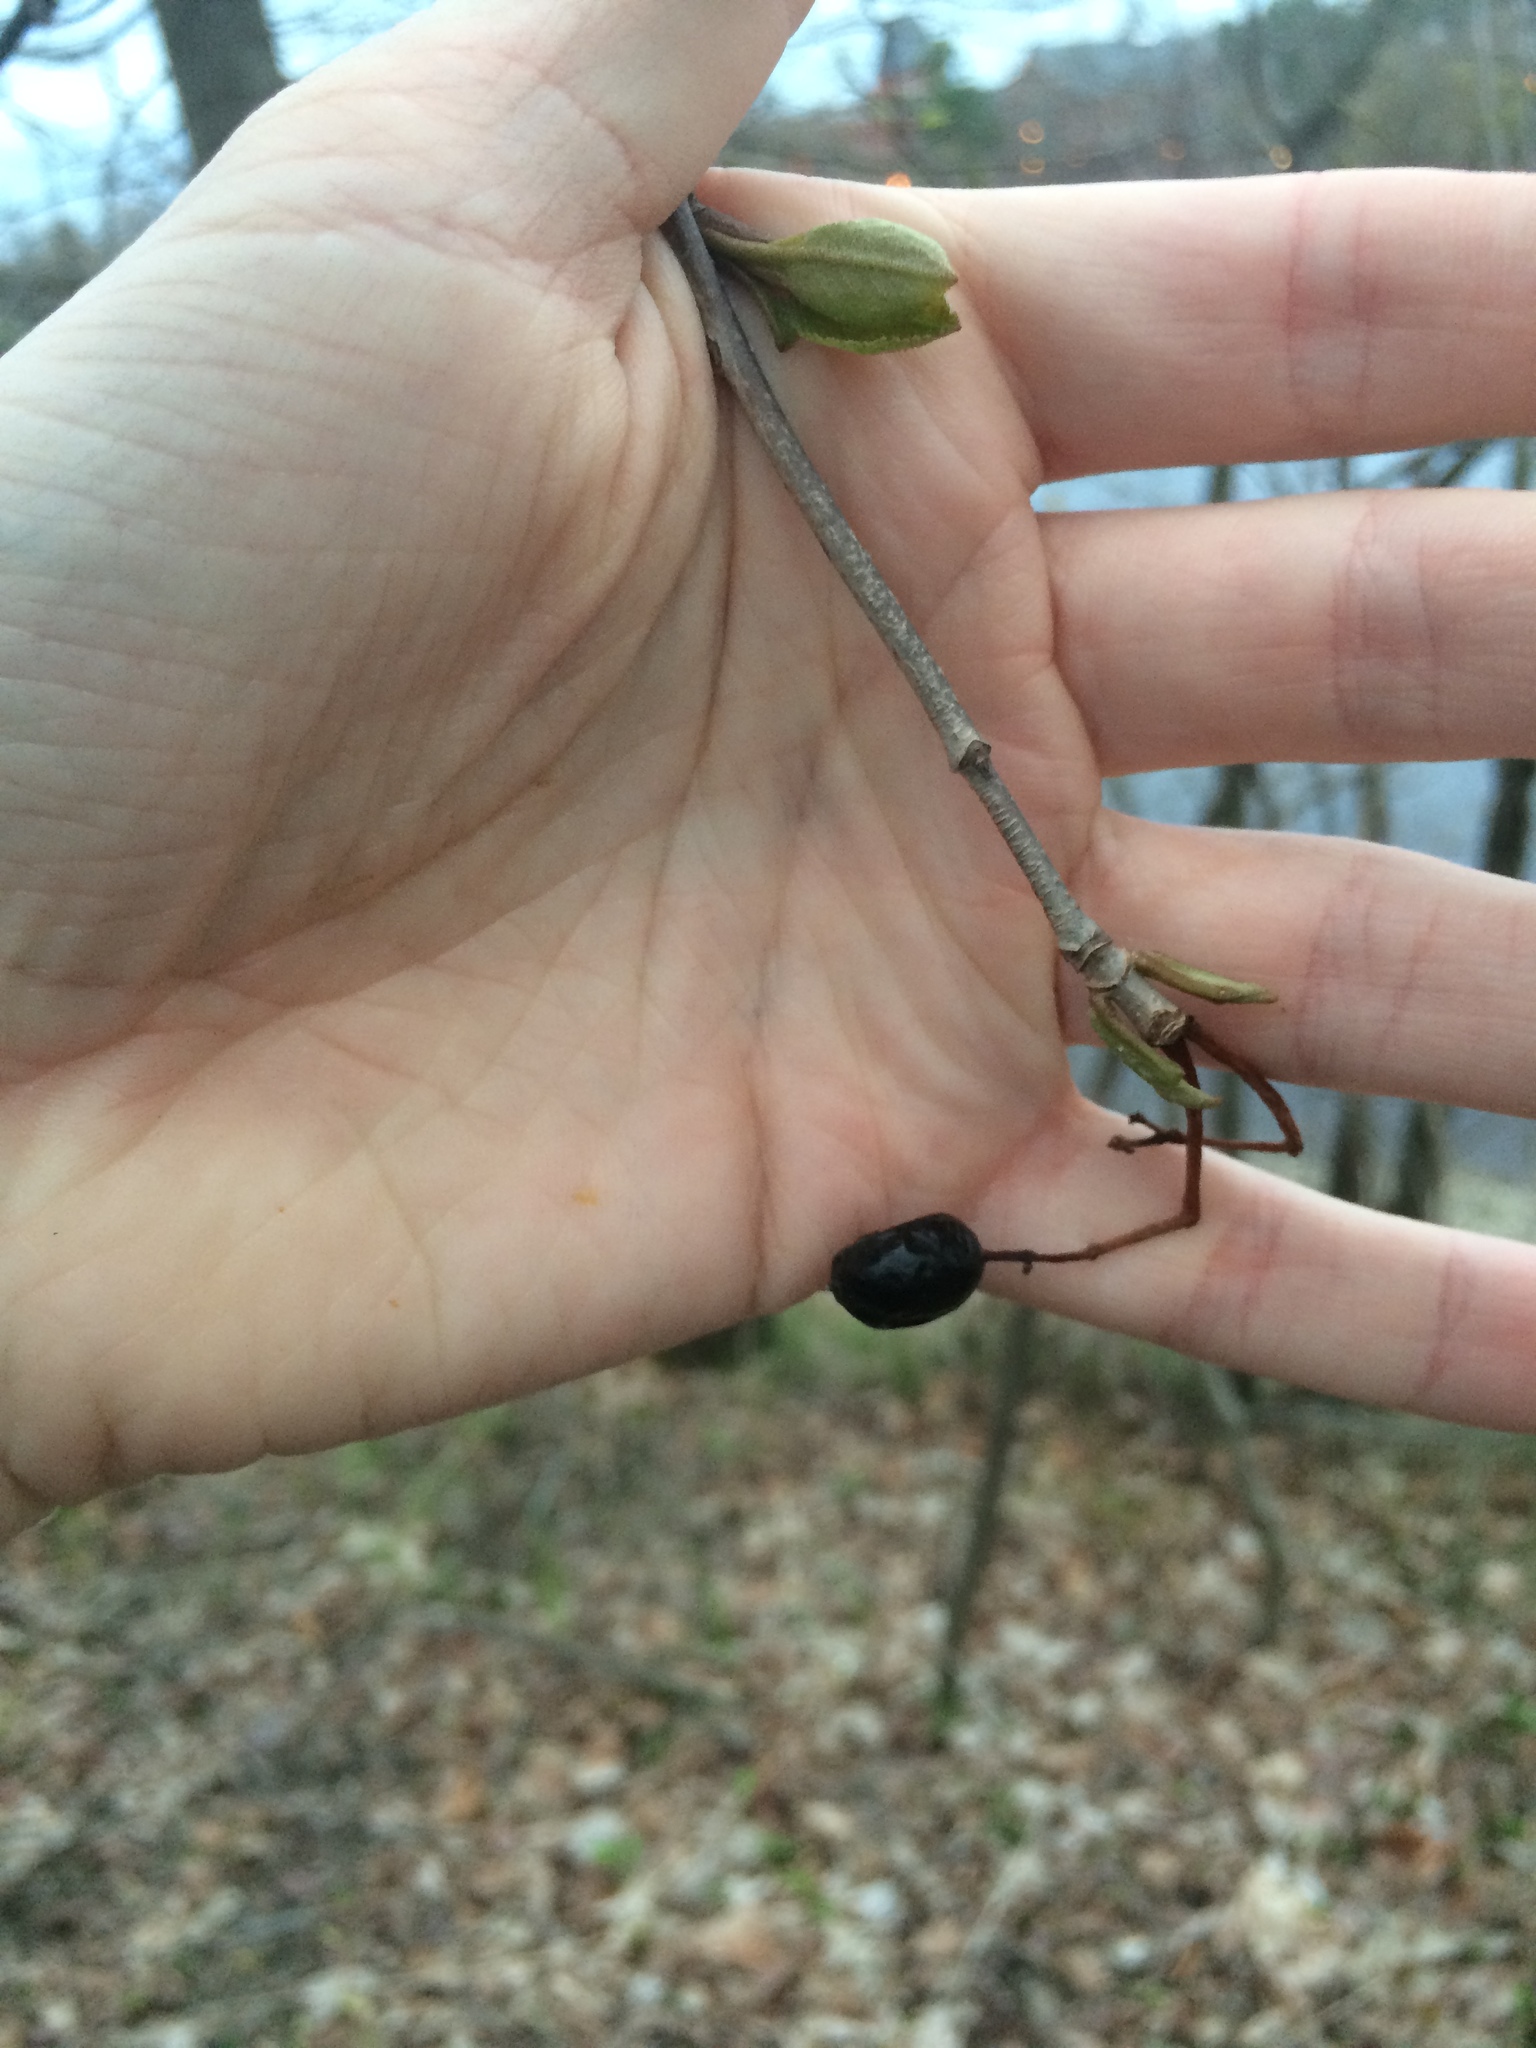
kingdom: Plantae
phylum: Tracheophyta
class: Magnoliopsida
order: Dipsacales
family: Viburnaceae
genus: Viburnum
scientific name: Viburnum lentago
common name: Black haw
